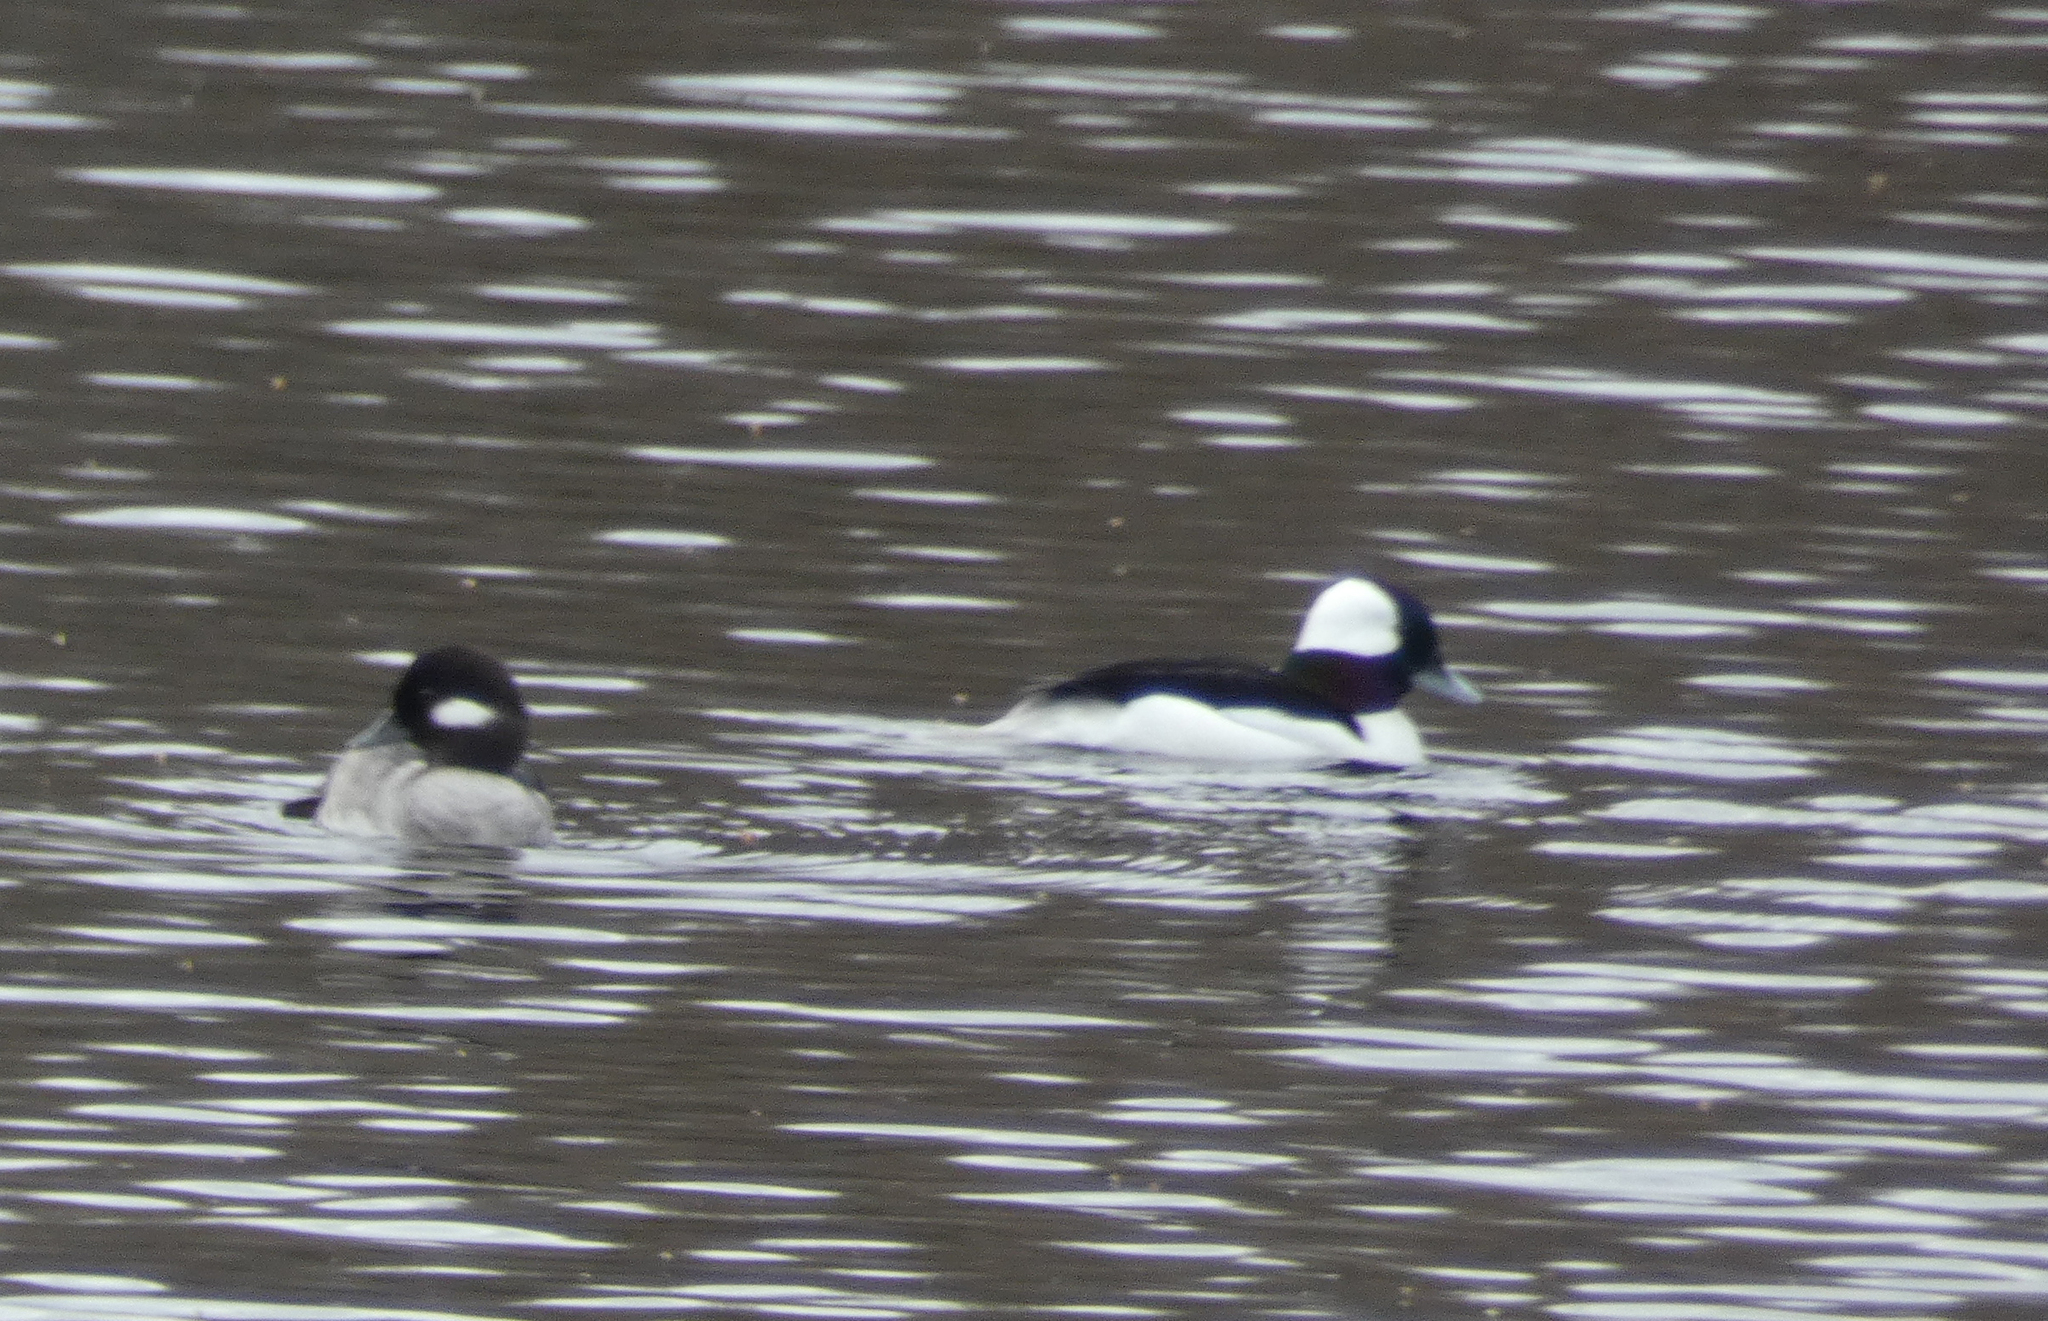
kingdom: Animalia
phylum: Chordata
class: Aves
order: Anseriformes
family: Anatidae
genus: Bucephala
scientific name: Bucephala albeola
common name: Bufflehead
